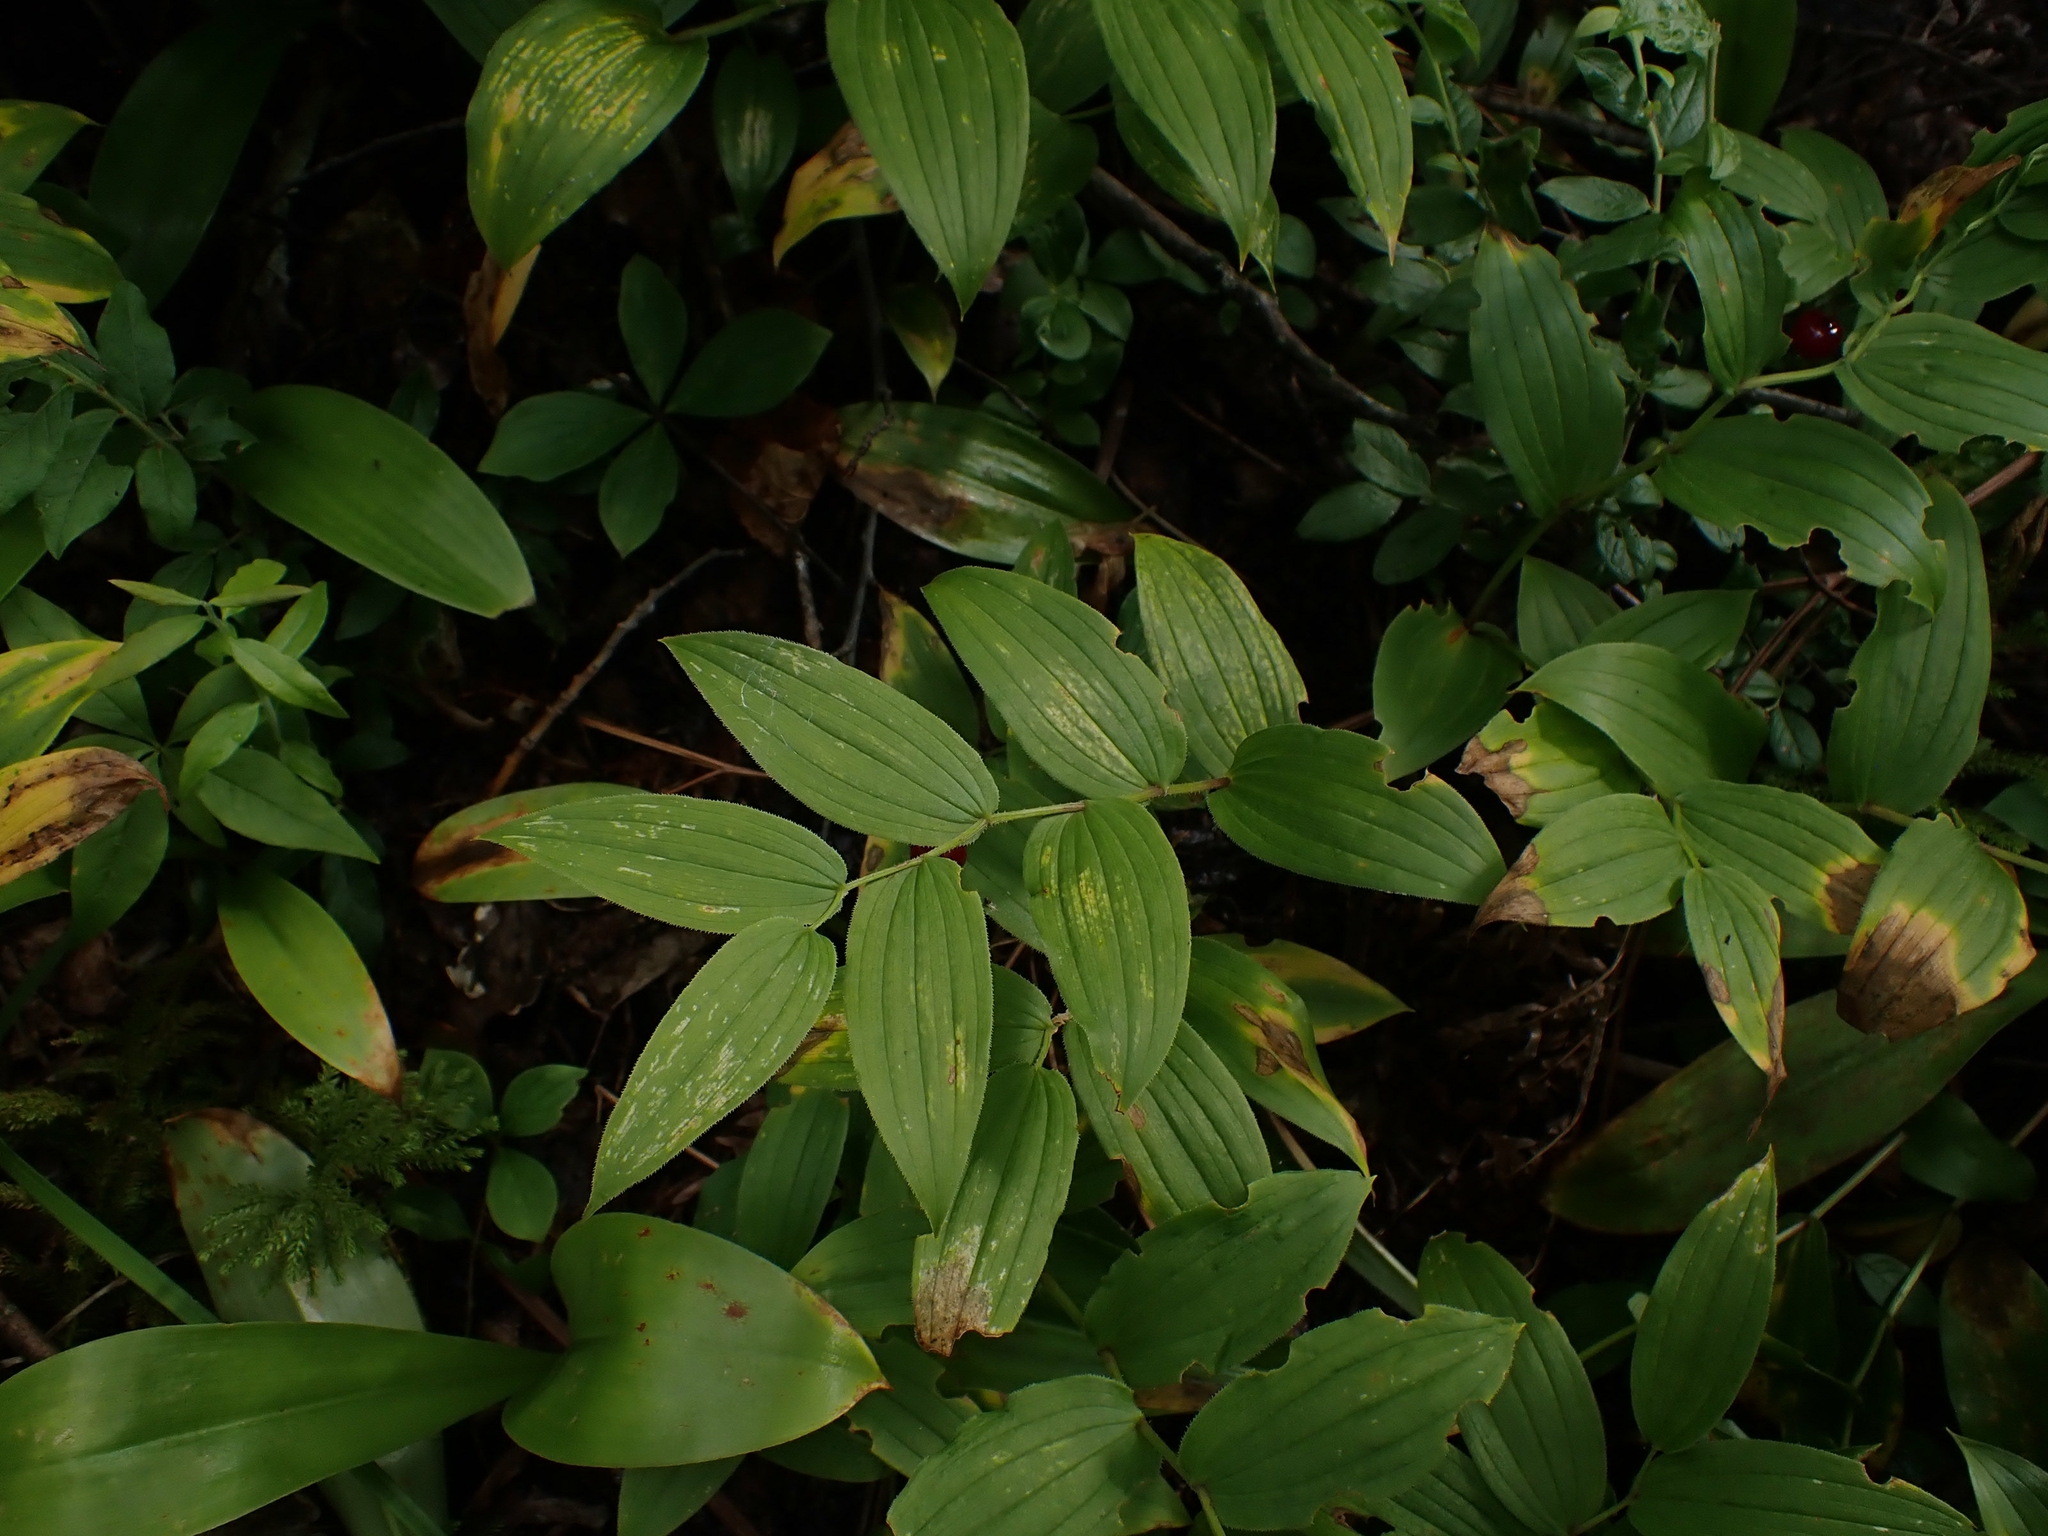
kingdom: Plantae
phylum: Tracheophyta
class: Liliopsida
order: Liliales
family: Liliaceae
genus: Streptopus
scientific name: Streptopus lanceolatus
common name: Rose mandarin
